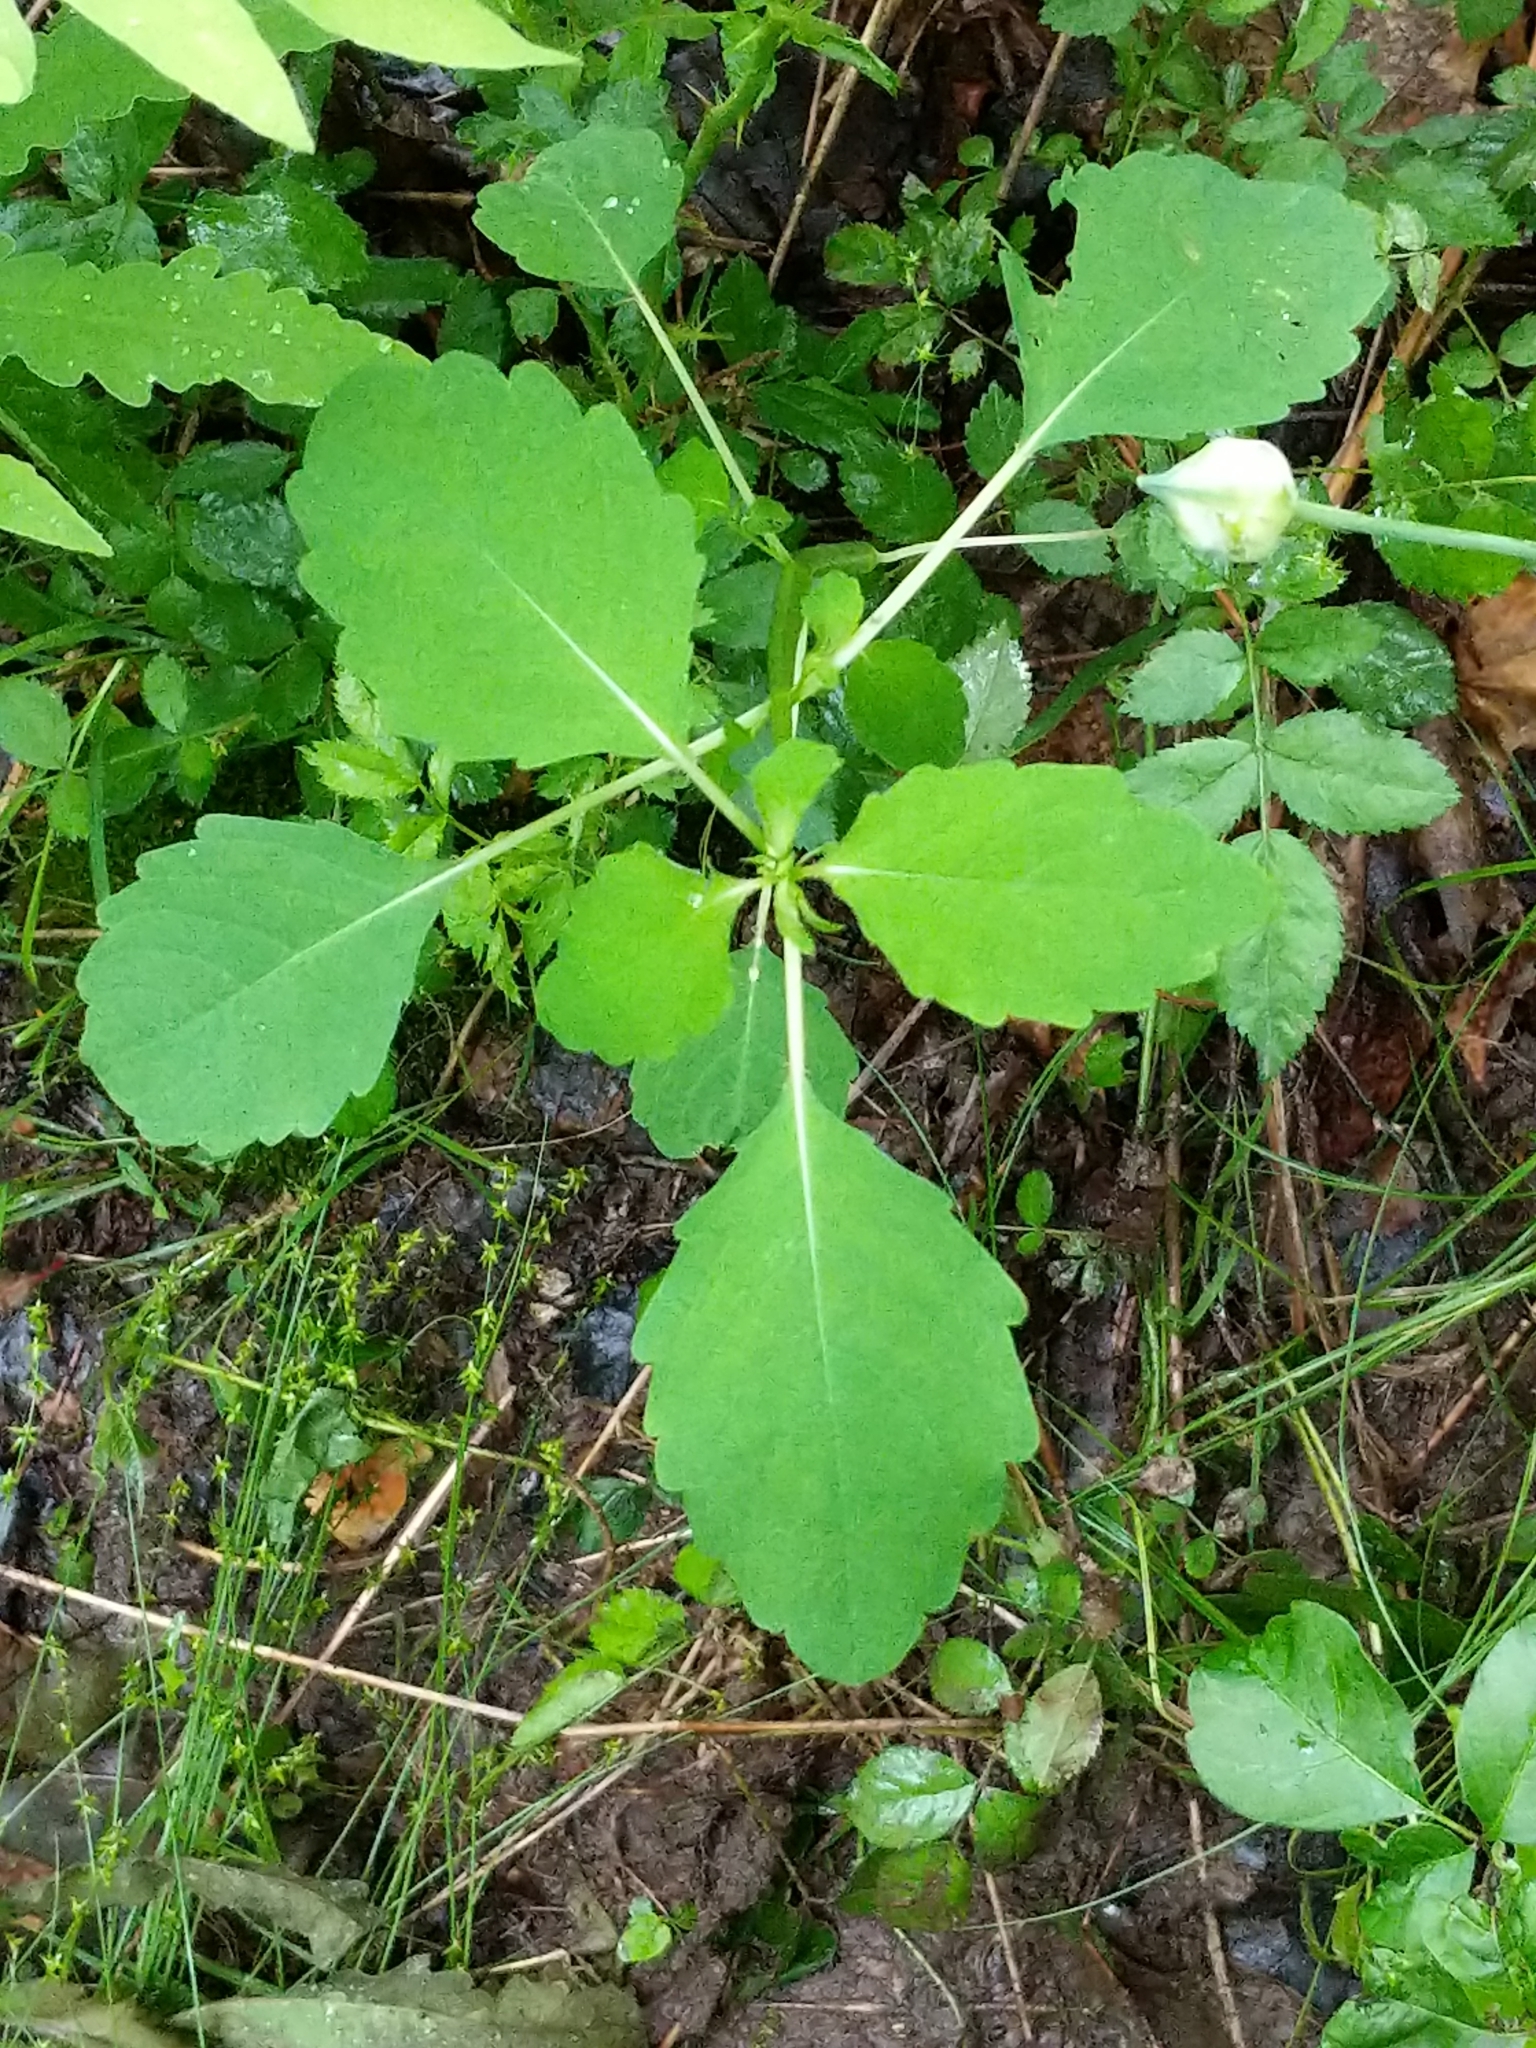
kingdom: Plantae
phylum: Tracheophyta
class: Magnoliopsida
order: Ericales
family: Balsaminaceae
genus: Impatiens
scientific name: Impatiens
